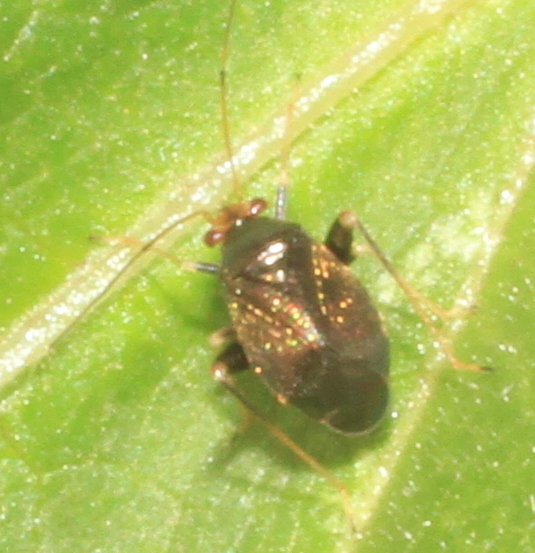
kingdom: Animalia
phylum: Arthropoda
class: Insecta
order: Hemiptera
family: Miridae
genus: Halticus
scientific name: Halticus luteicollis
